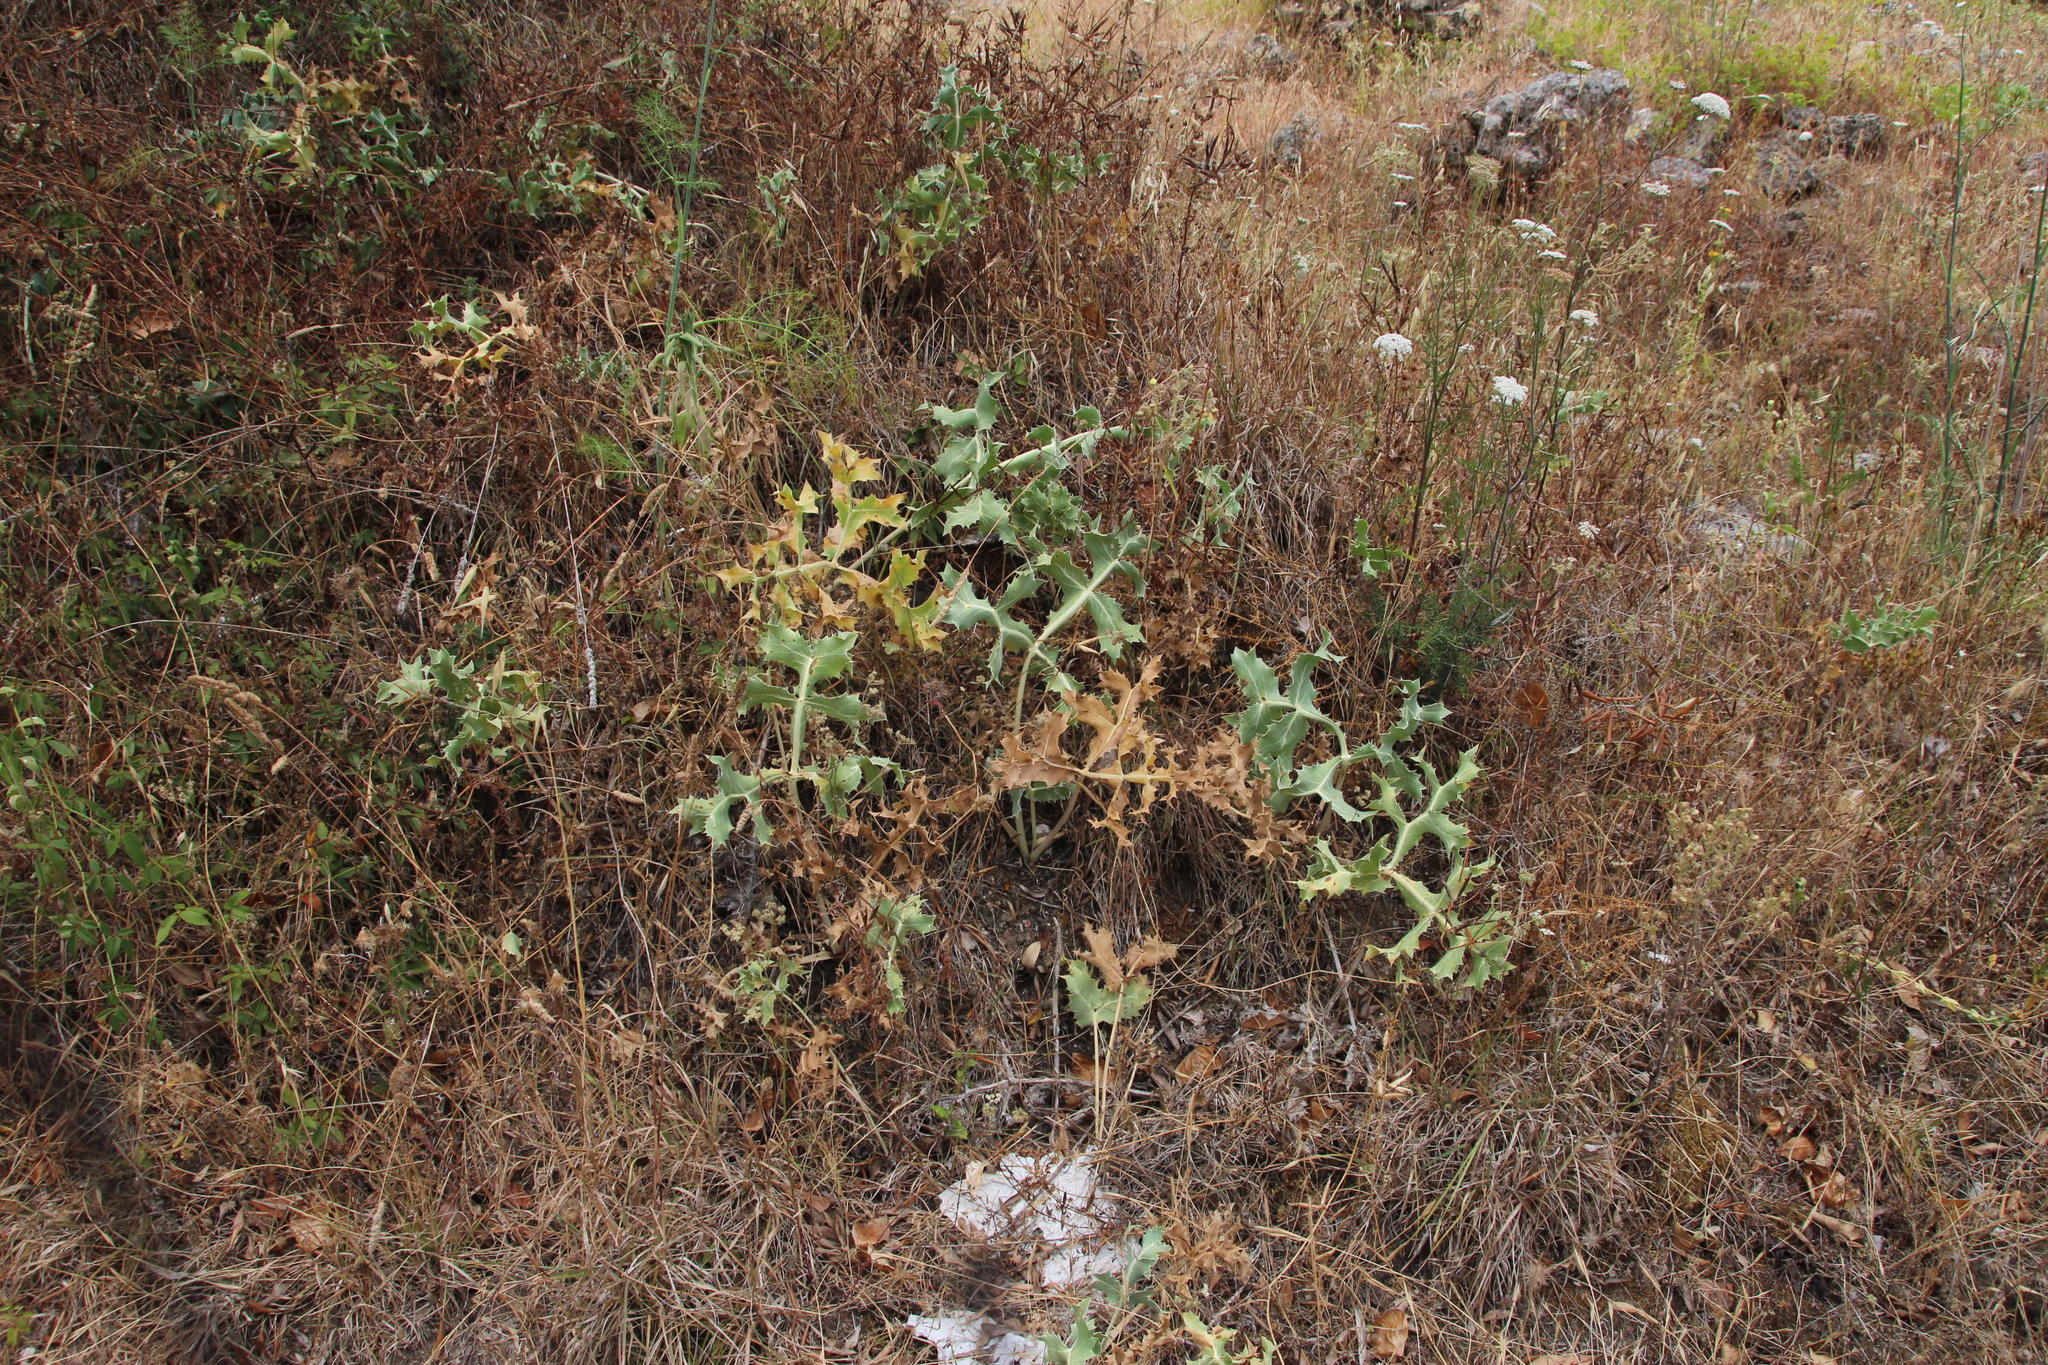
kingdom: Plantae
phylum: Tracheophyta
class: Magnoliopsida
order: Apiales
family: Apiaceae
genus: Eryngium
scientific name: Eryngium campestre
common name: Field eryngo
